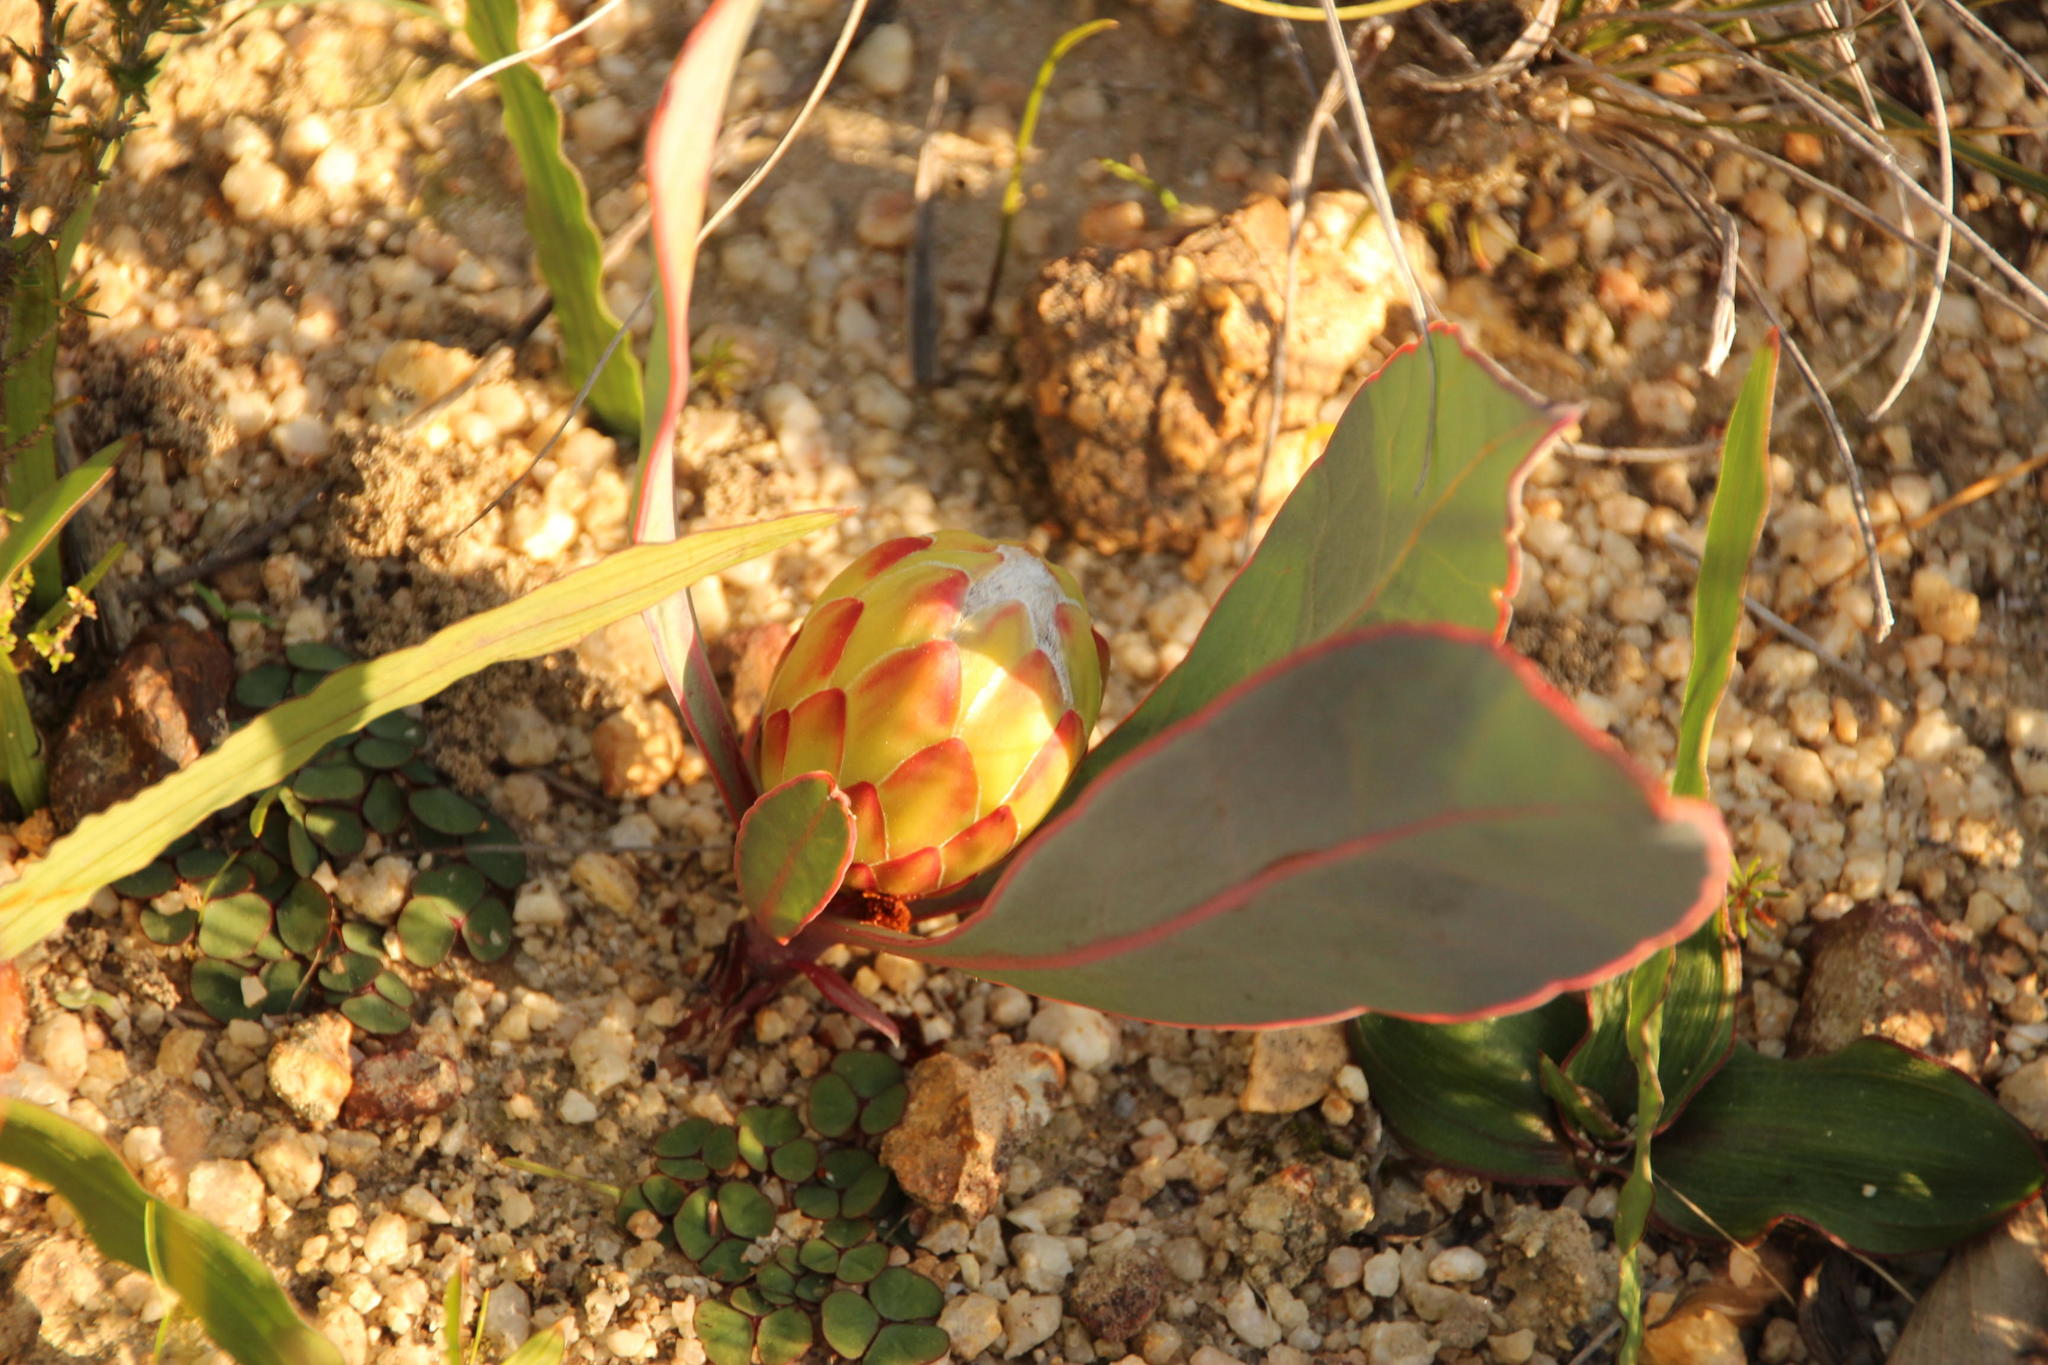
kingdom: Plantae
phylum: Tracheophyta
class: Magnoliopsida
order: Proteales
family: Proteaceae
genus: Protea
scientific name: Protea acaulos
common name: Common ground sugarbush
